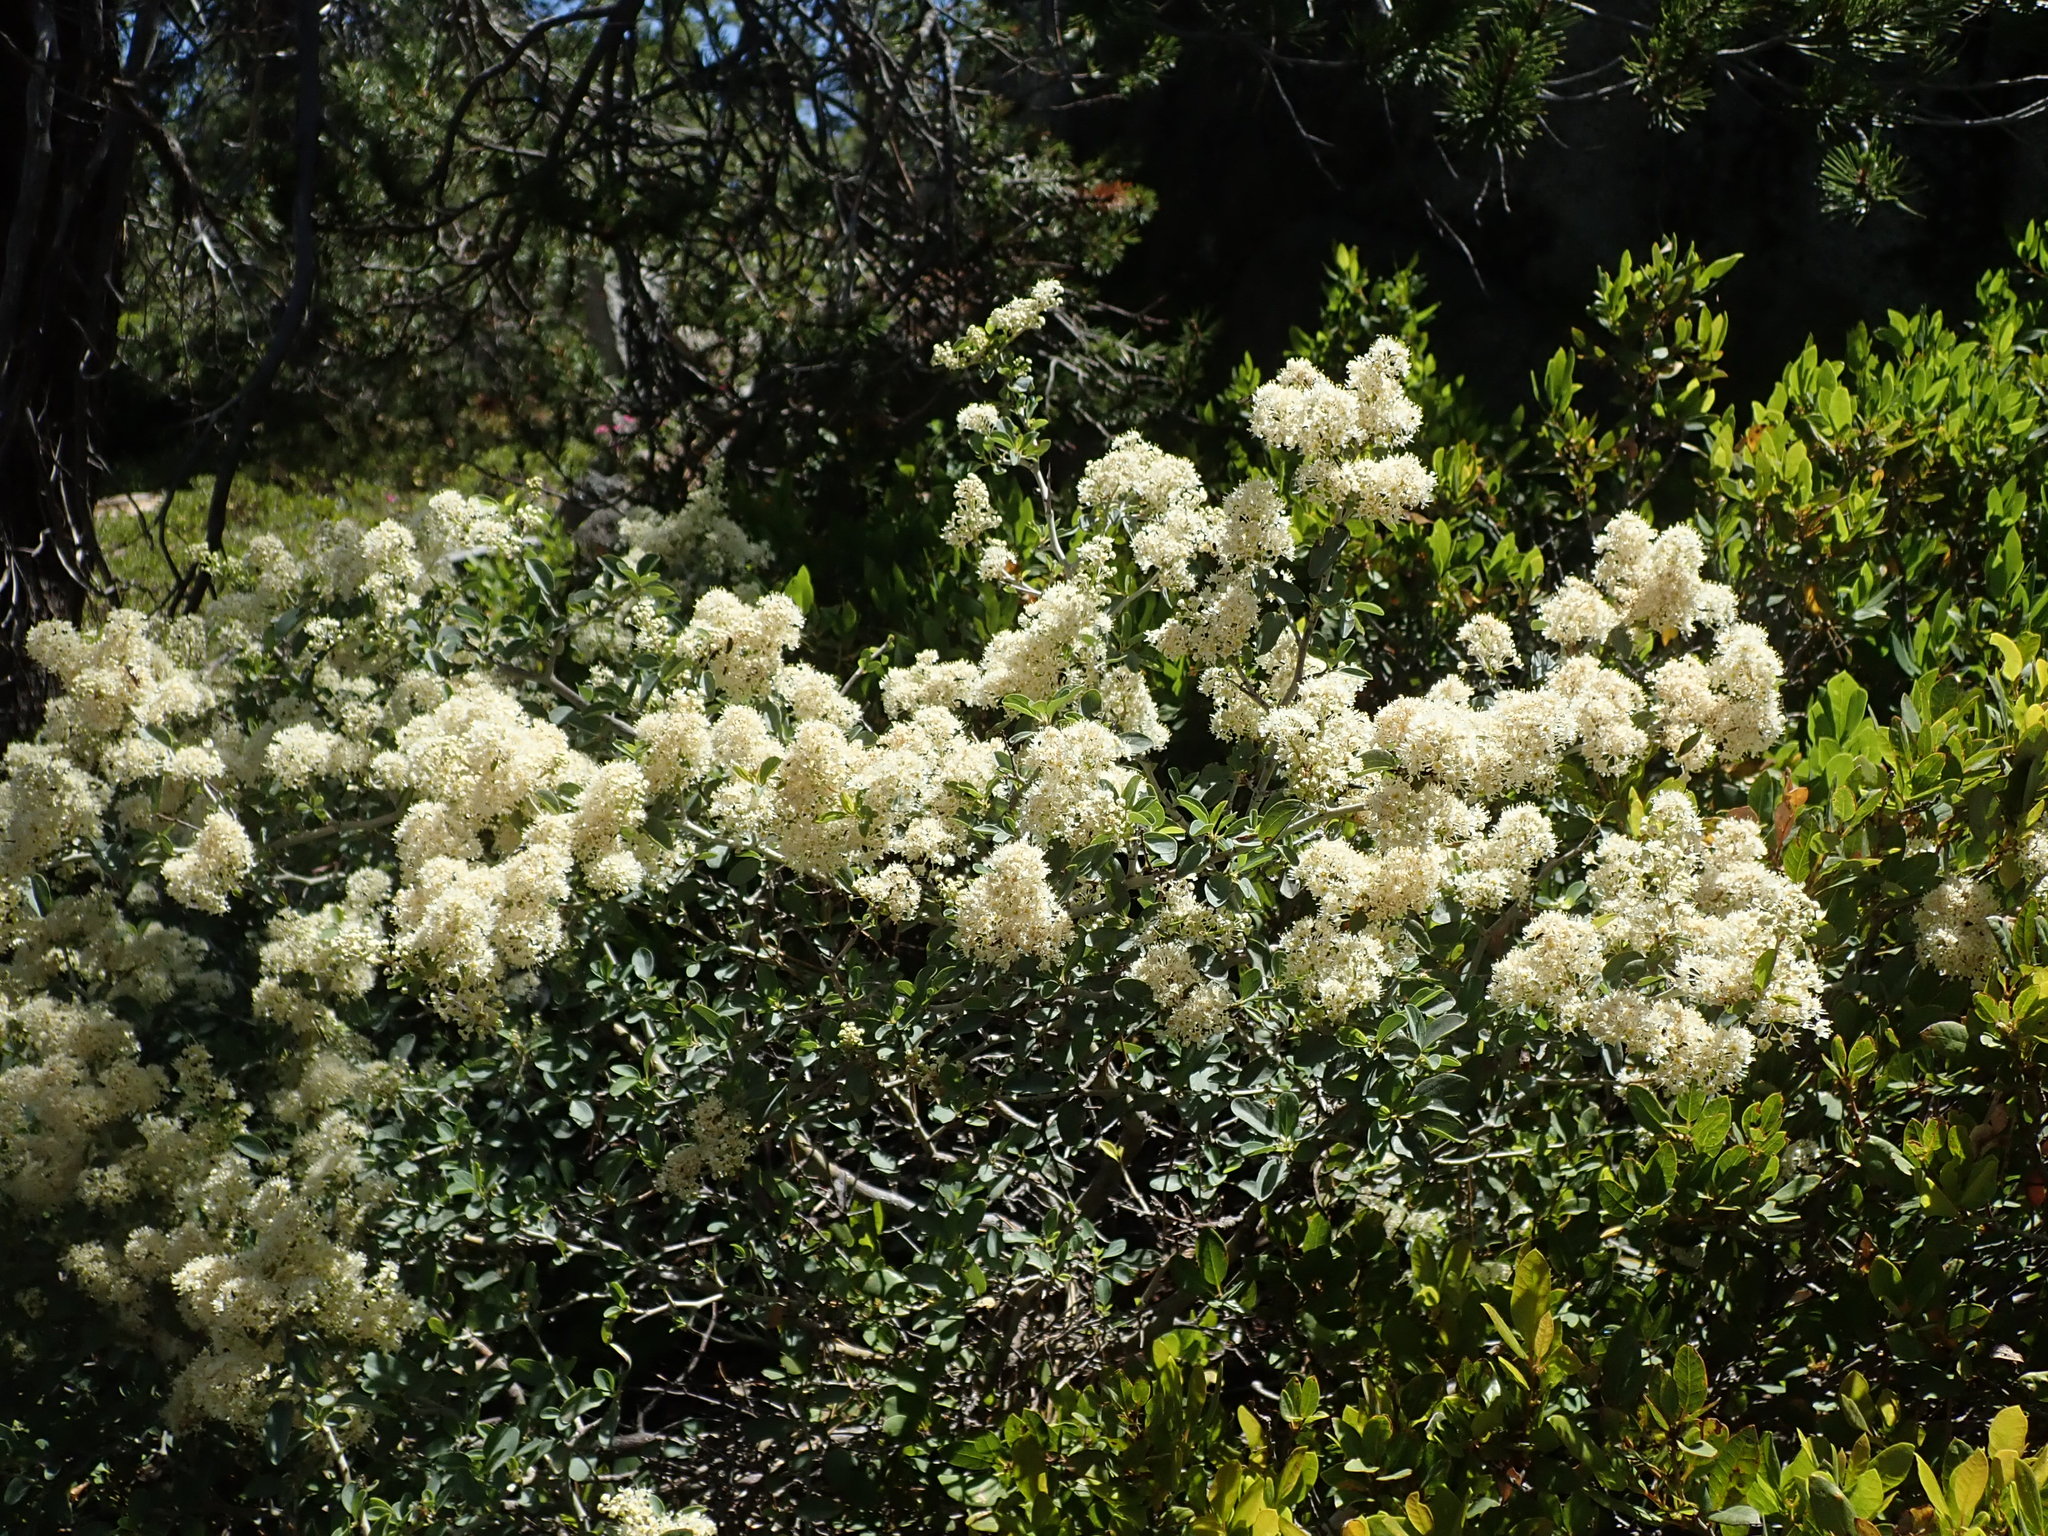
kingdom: Plantae
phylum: Tracheophyta
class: Magnoliopsida
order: Rosales
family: Rhamnaceae
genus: Ceanothus
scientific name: Ceanothus cordulatus
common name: Mountain whitethorn
